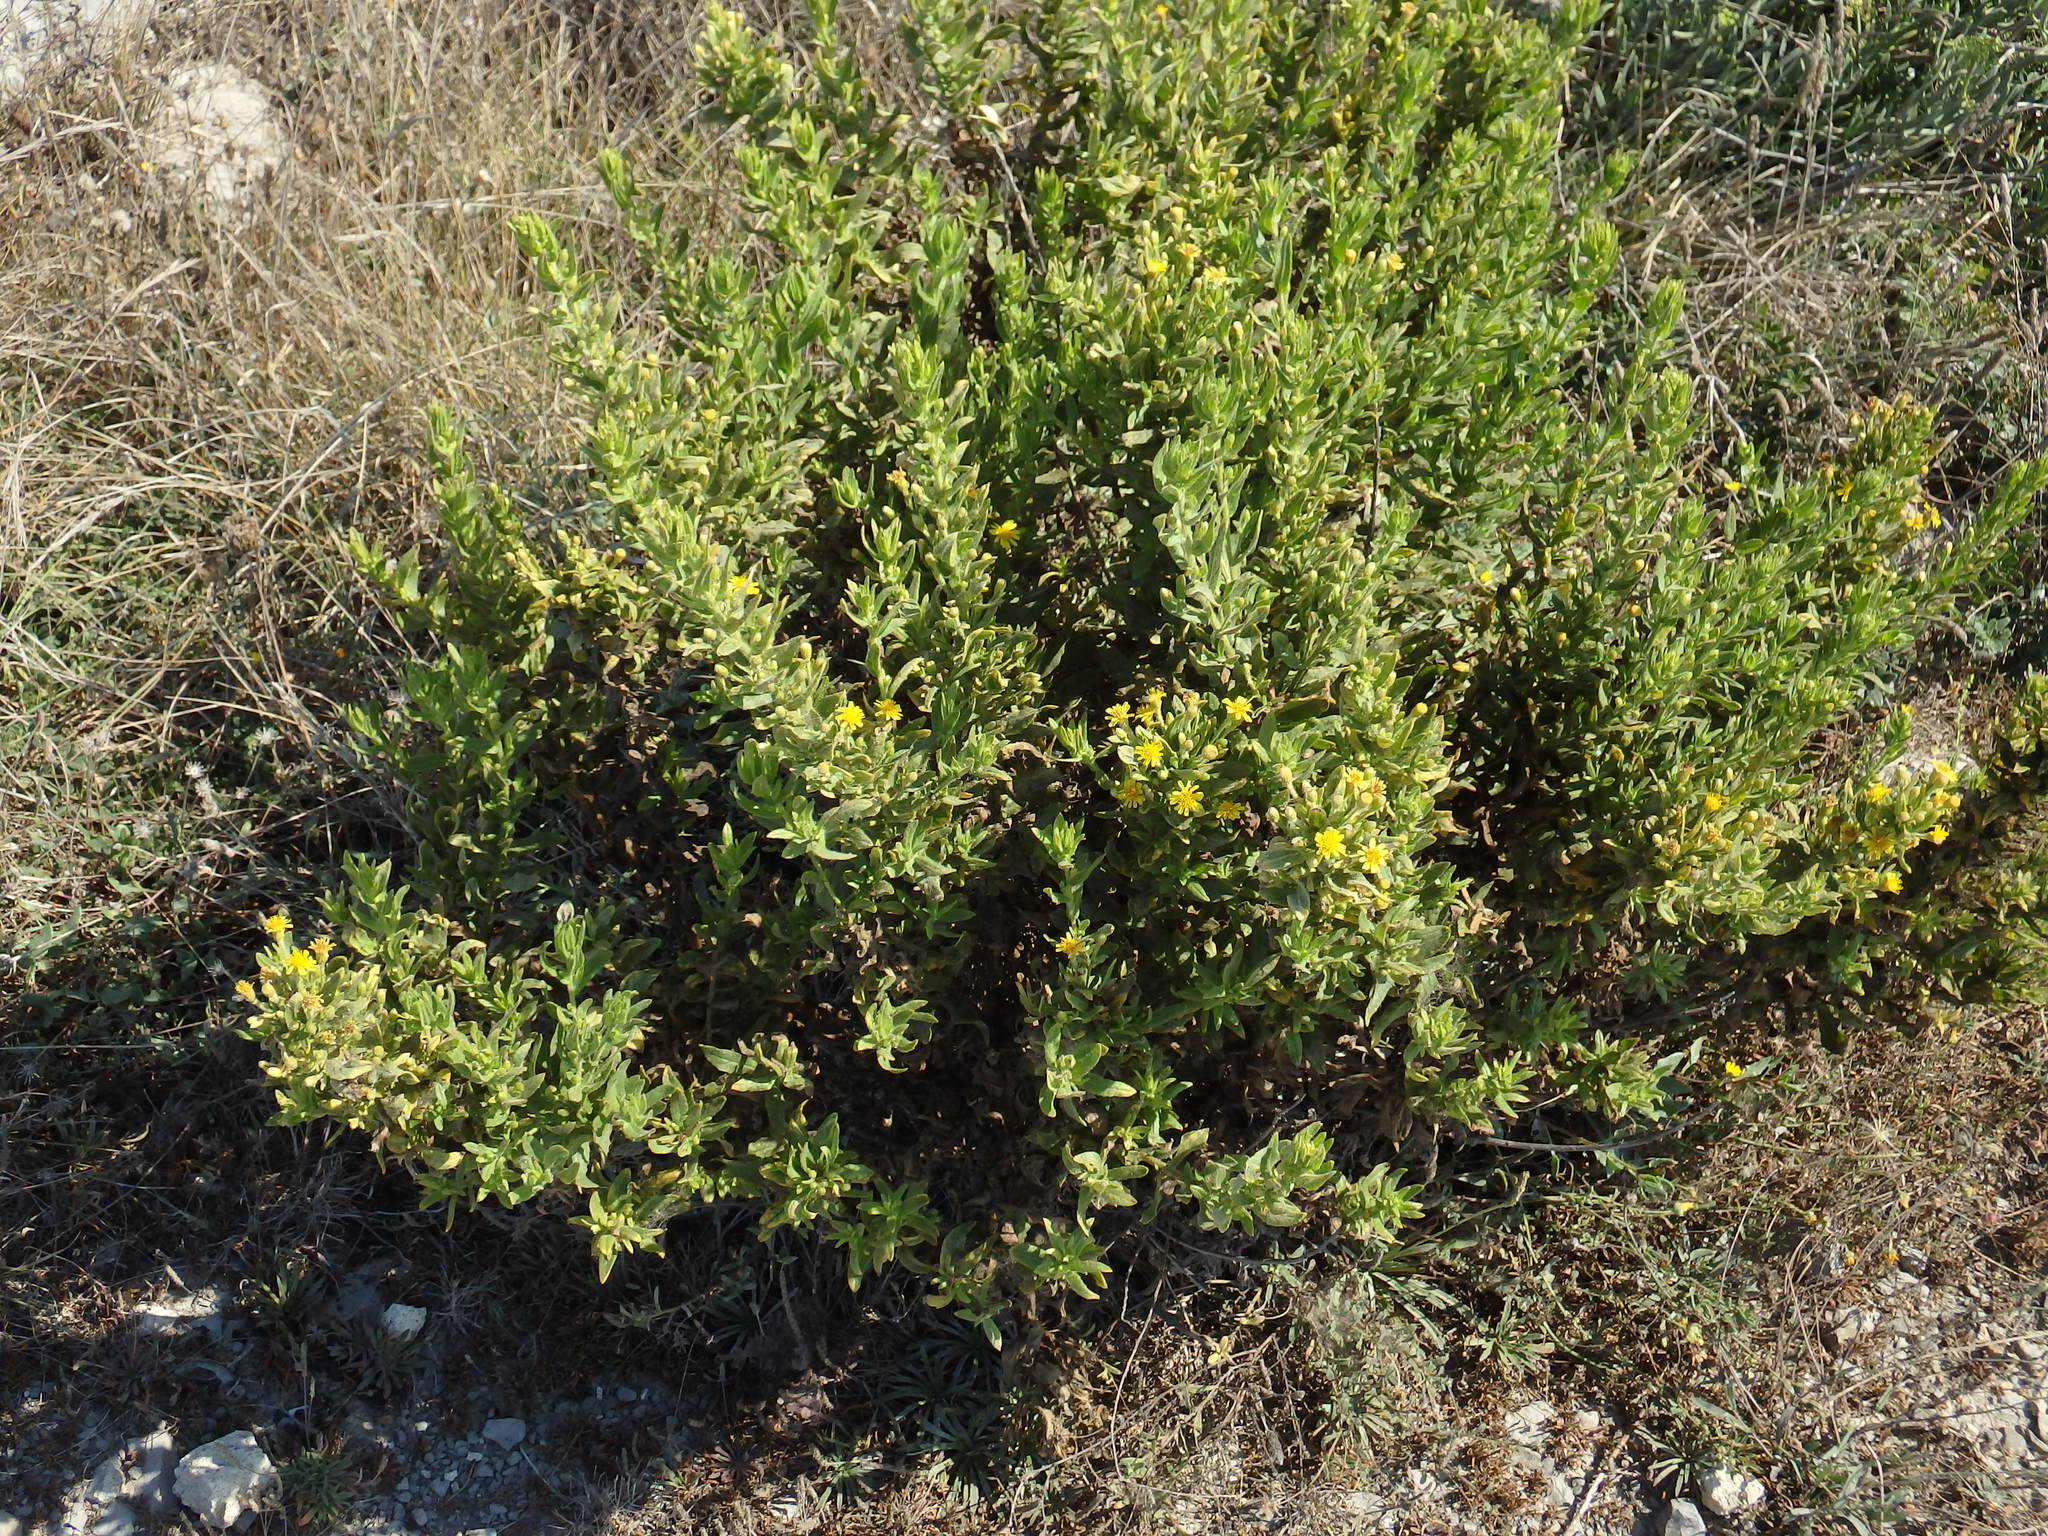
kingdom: Plantae
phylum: Tracheophyta
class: Magnoliopsida
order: Asterales
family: Asteraceae
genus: Dittrichia
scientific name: Dittrichia viscosa
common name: Woody fleabane
